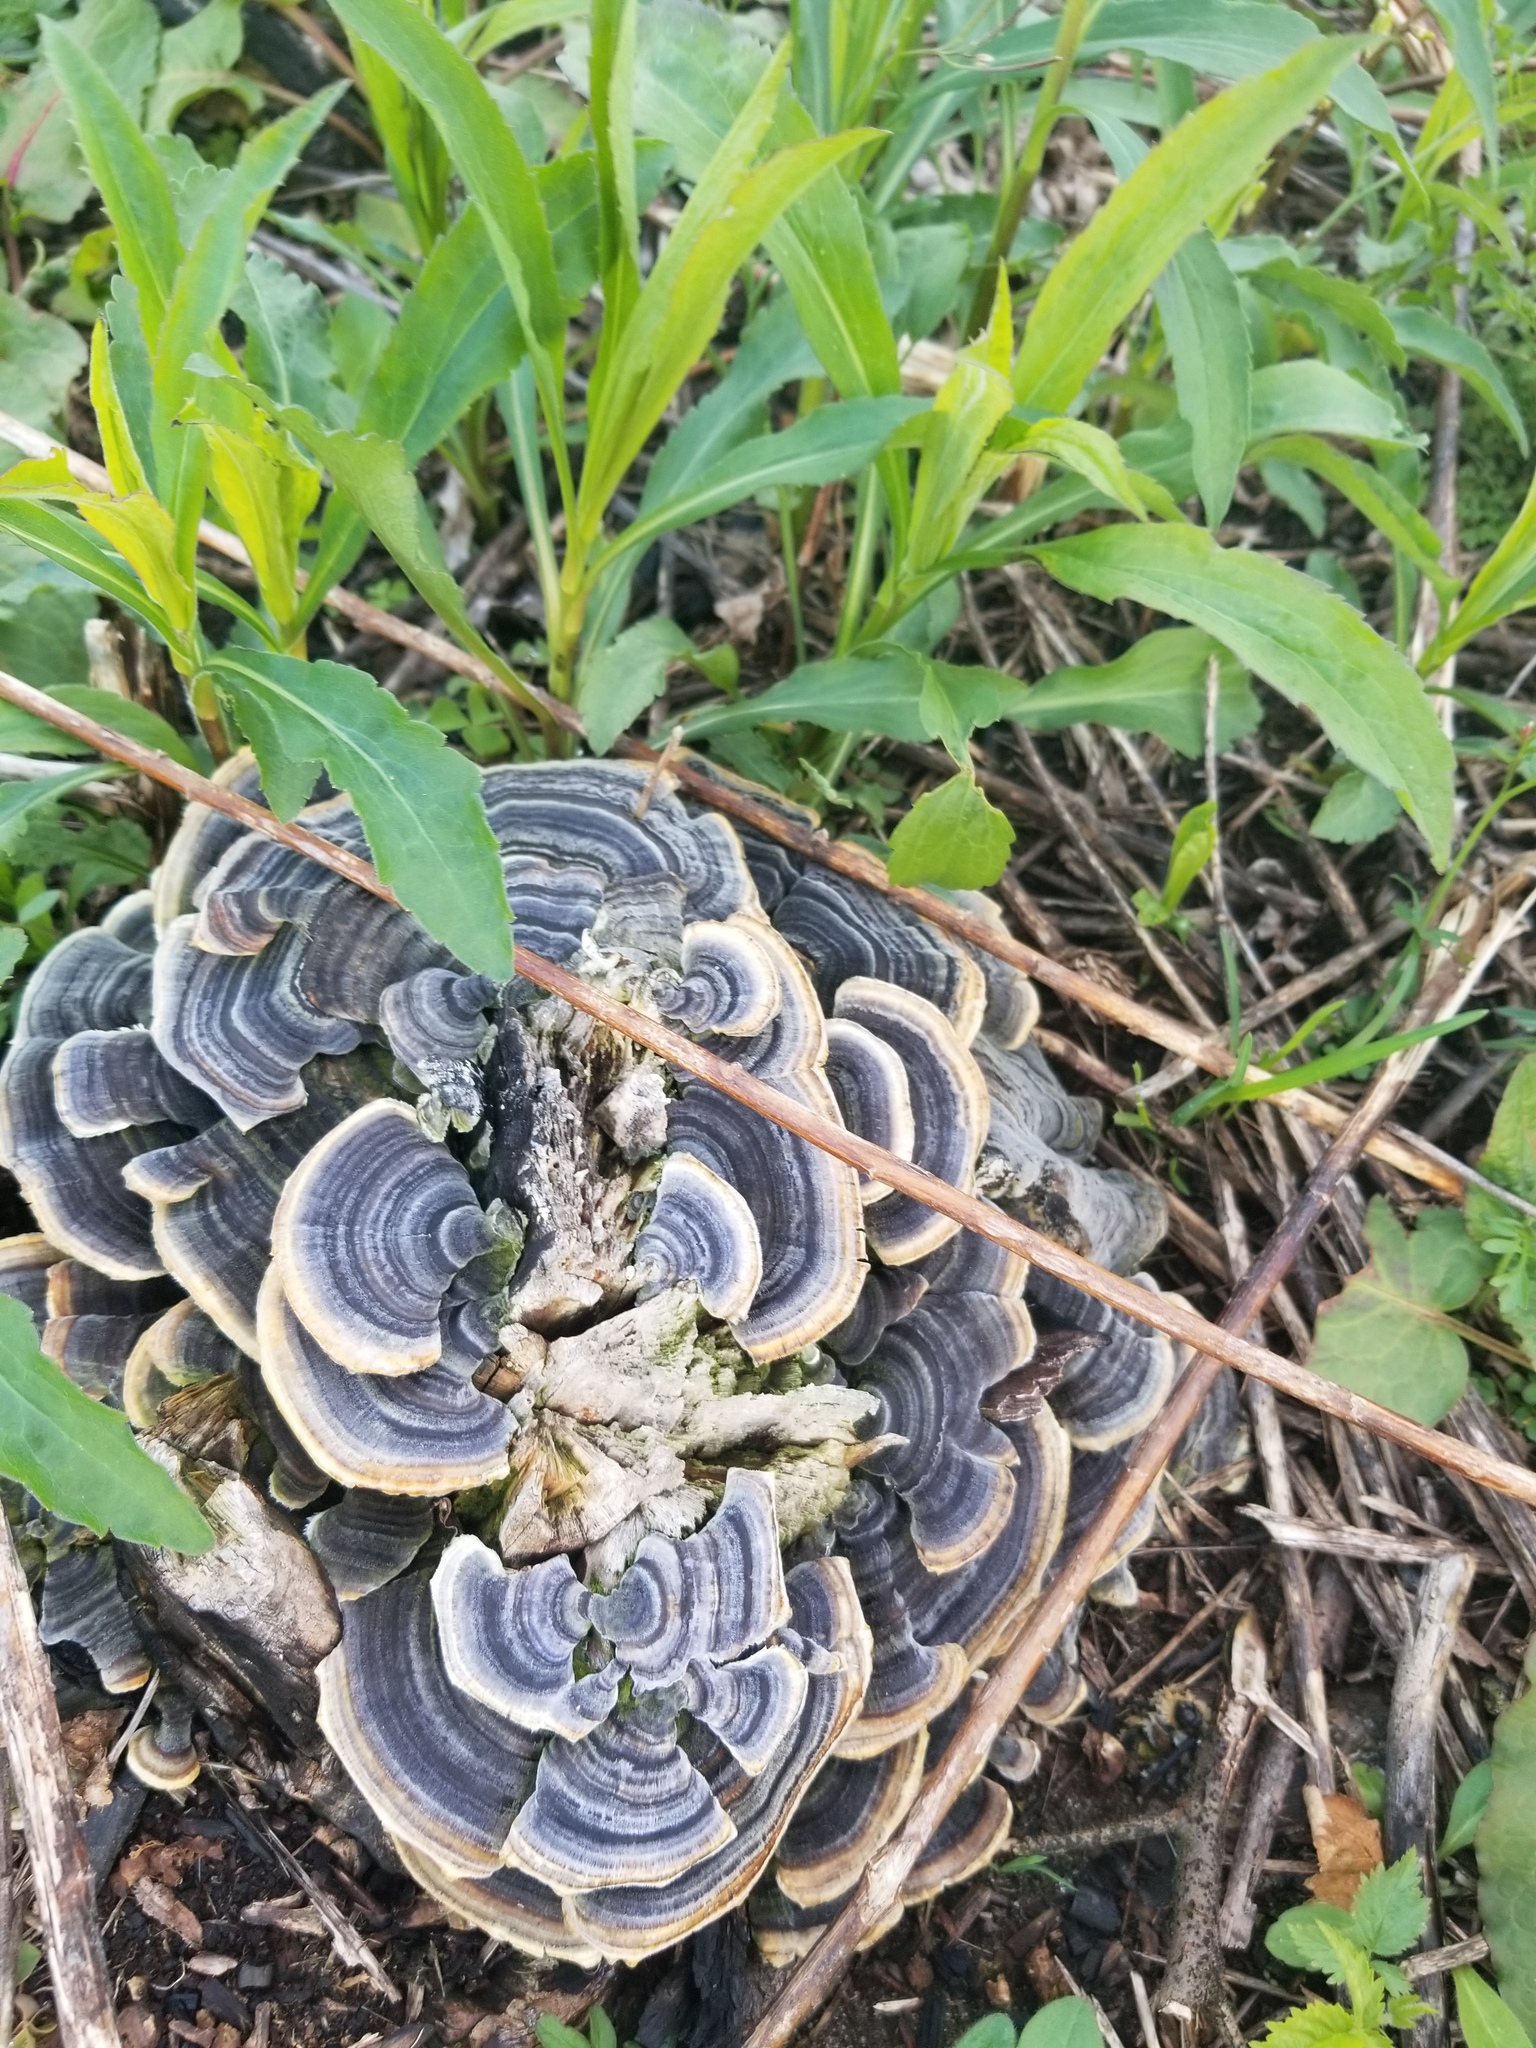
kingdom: Fungi
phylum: Basidiomycota
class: Agaricomycetes
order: Polyporales
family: Polyporaceae
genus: Trametes
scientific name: Trametes versicolor
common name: Turkeytail
